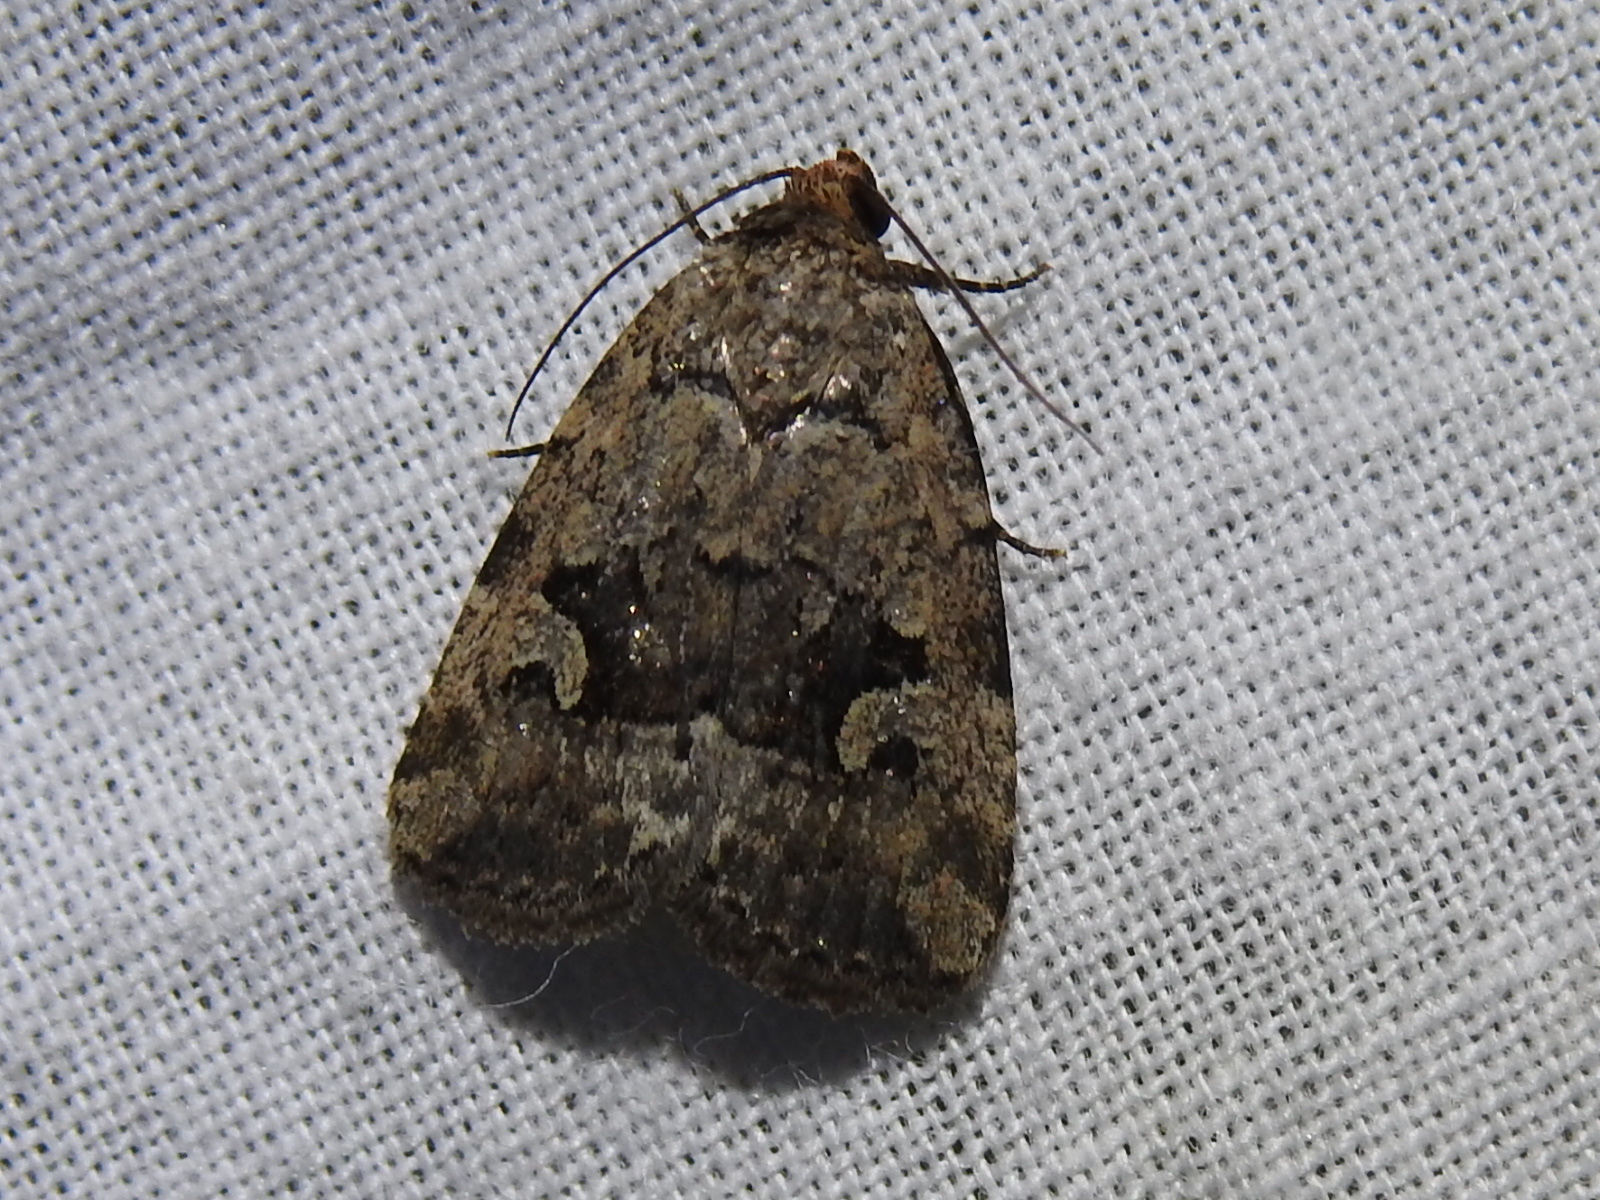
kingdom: Animalia
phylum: Arthropoda
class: Insecta
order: Lepidoptera
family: Noctuidae
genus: Elaphria
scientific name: Elaphria festivoides
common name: Festive midget
